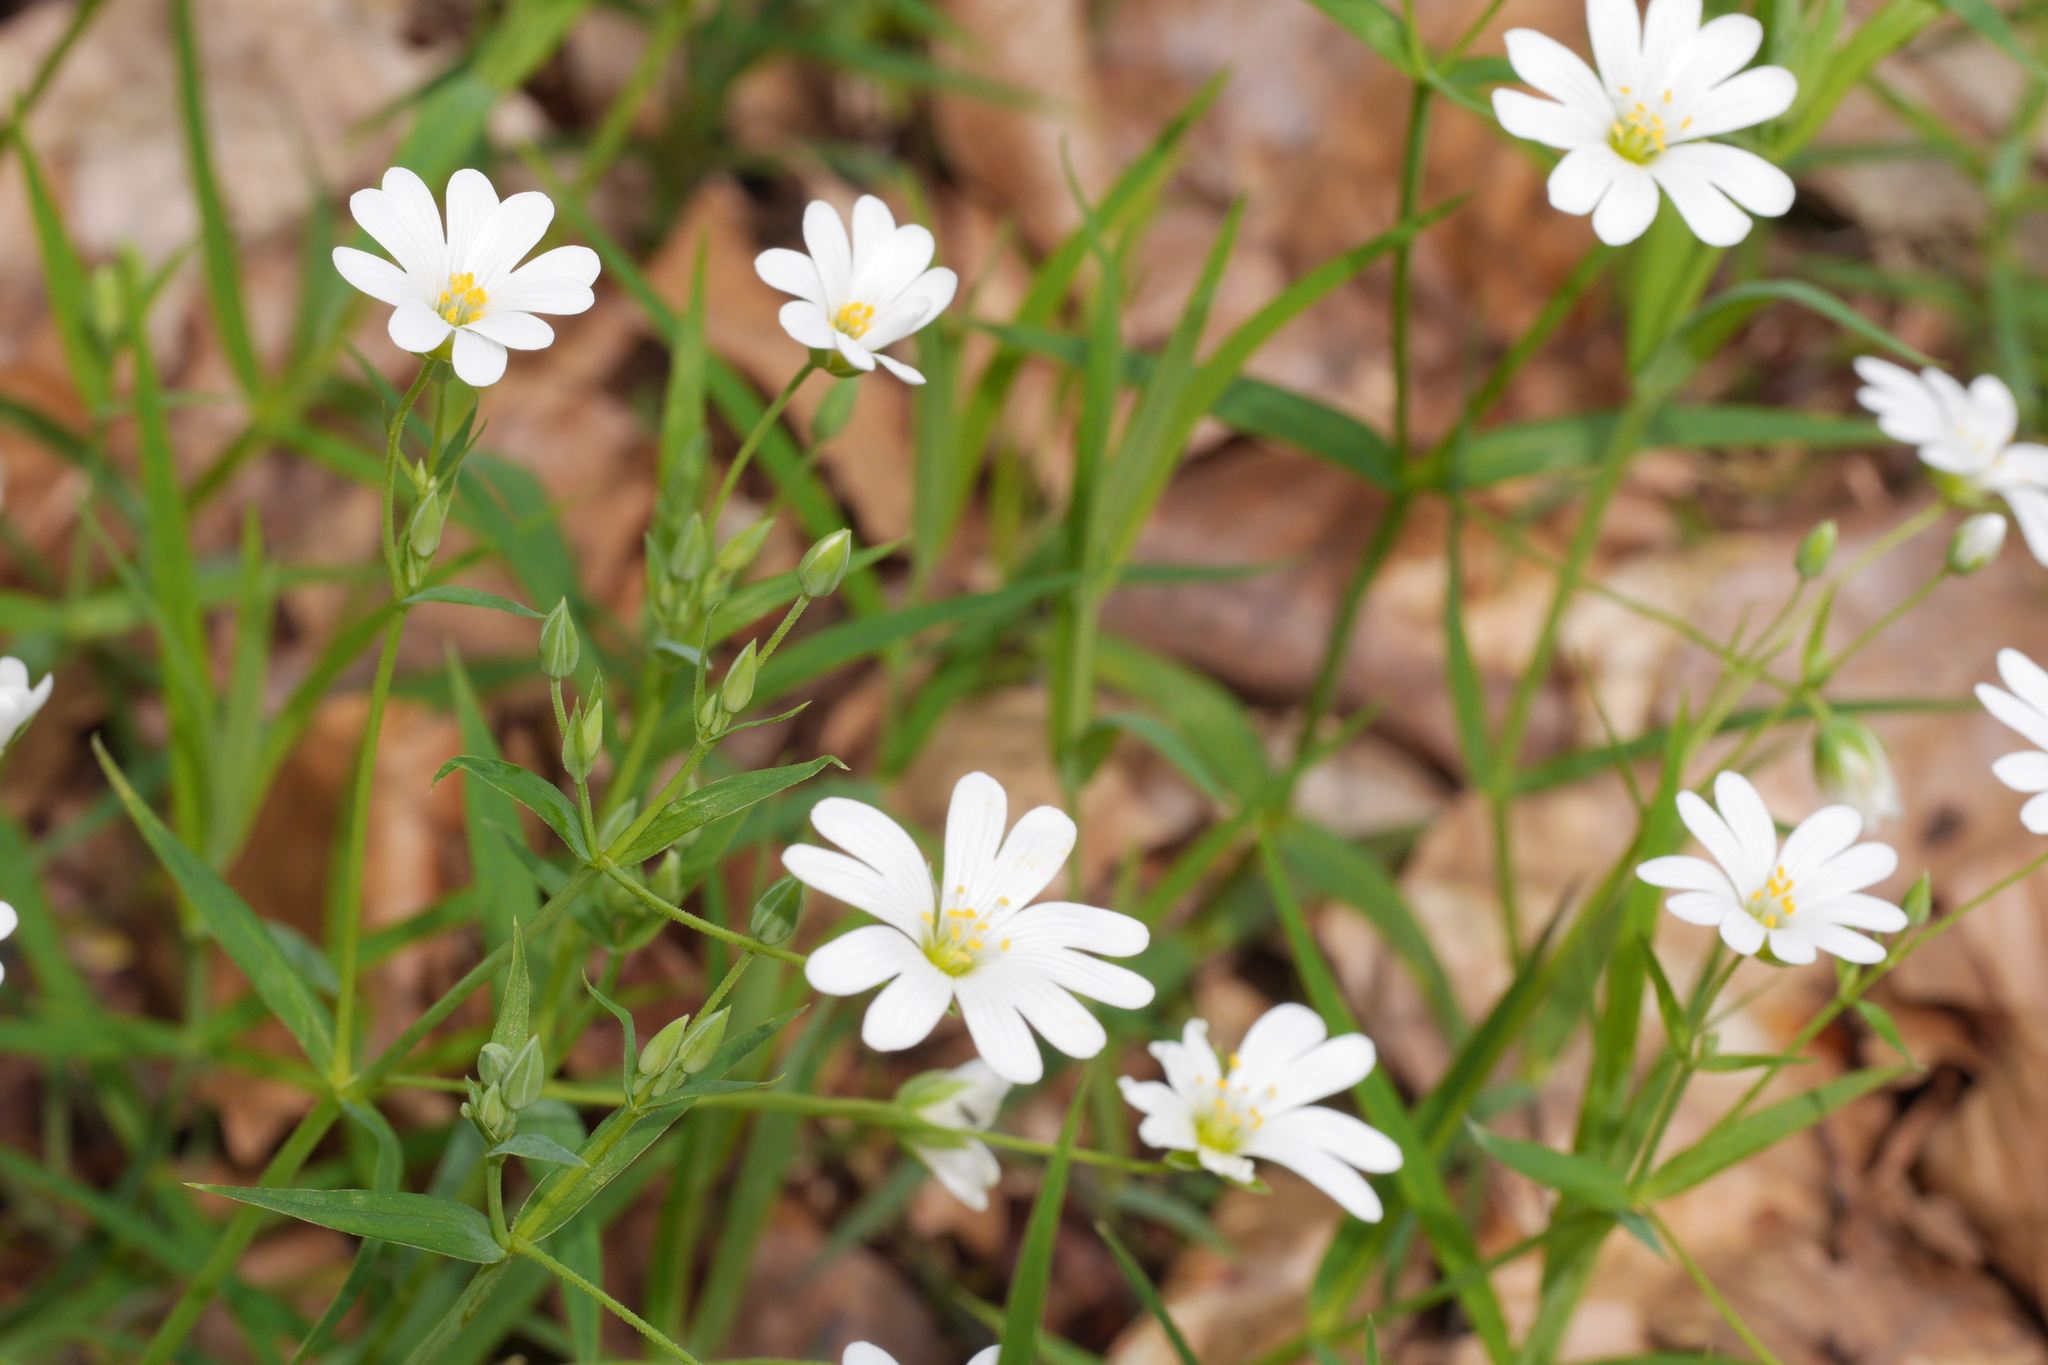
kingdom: Plantae
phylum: Tracheophyta
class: Magnoliopsida
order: Caryophyllales
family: Caryophyllaceae
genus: Rabelera
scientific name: Rabelera holostea
